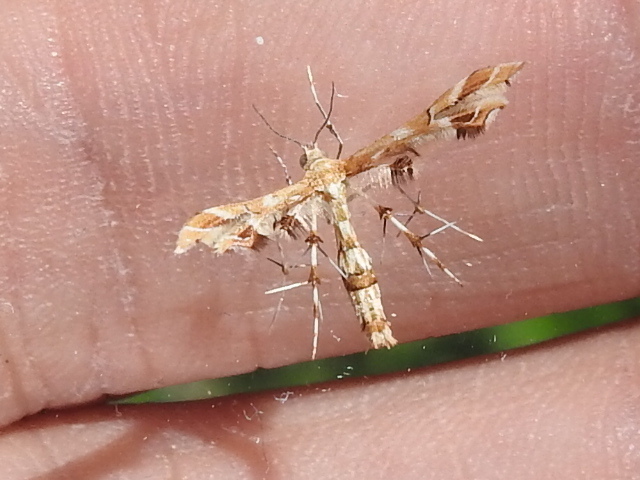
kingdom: Animalia
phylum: Arthropoda
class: Insecta
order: Lepidoptera
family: Pterophoridae
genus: Geina
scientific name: Geina periscelidactylus
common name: Grape plume moth
